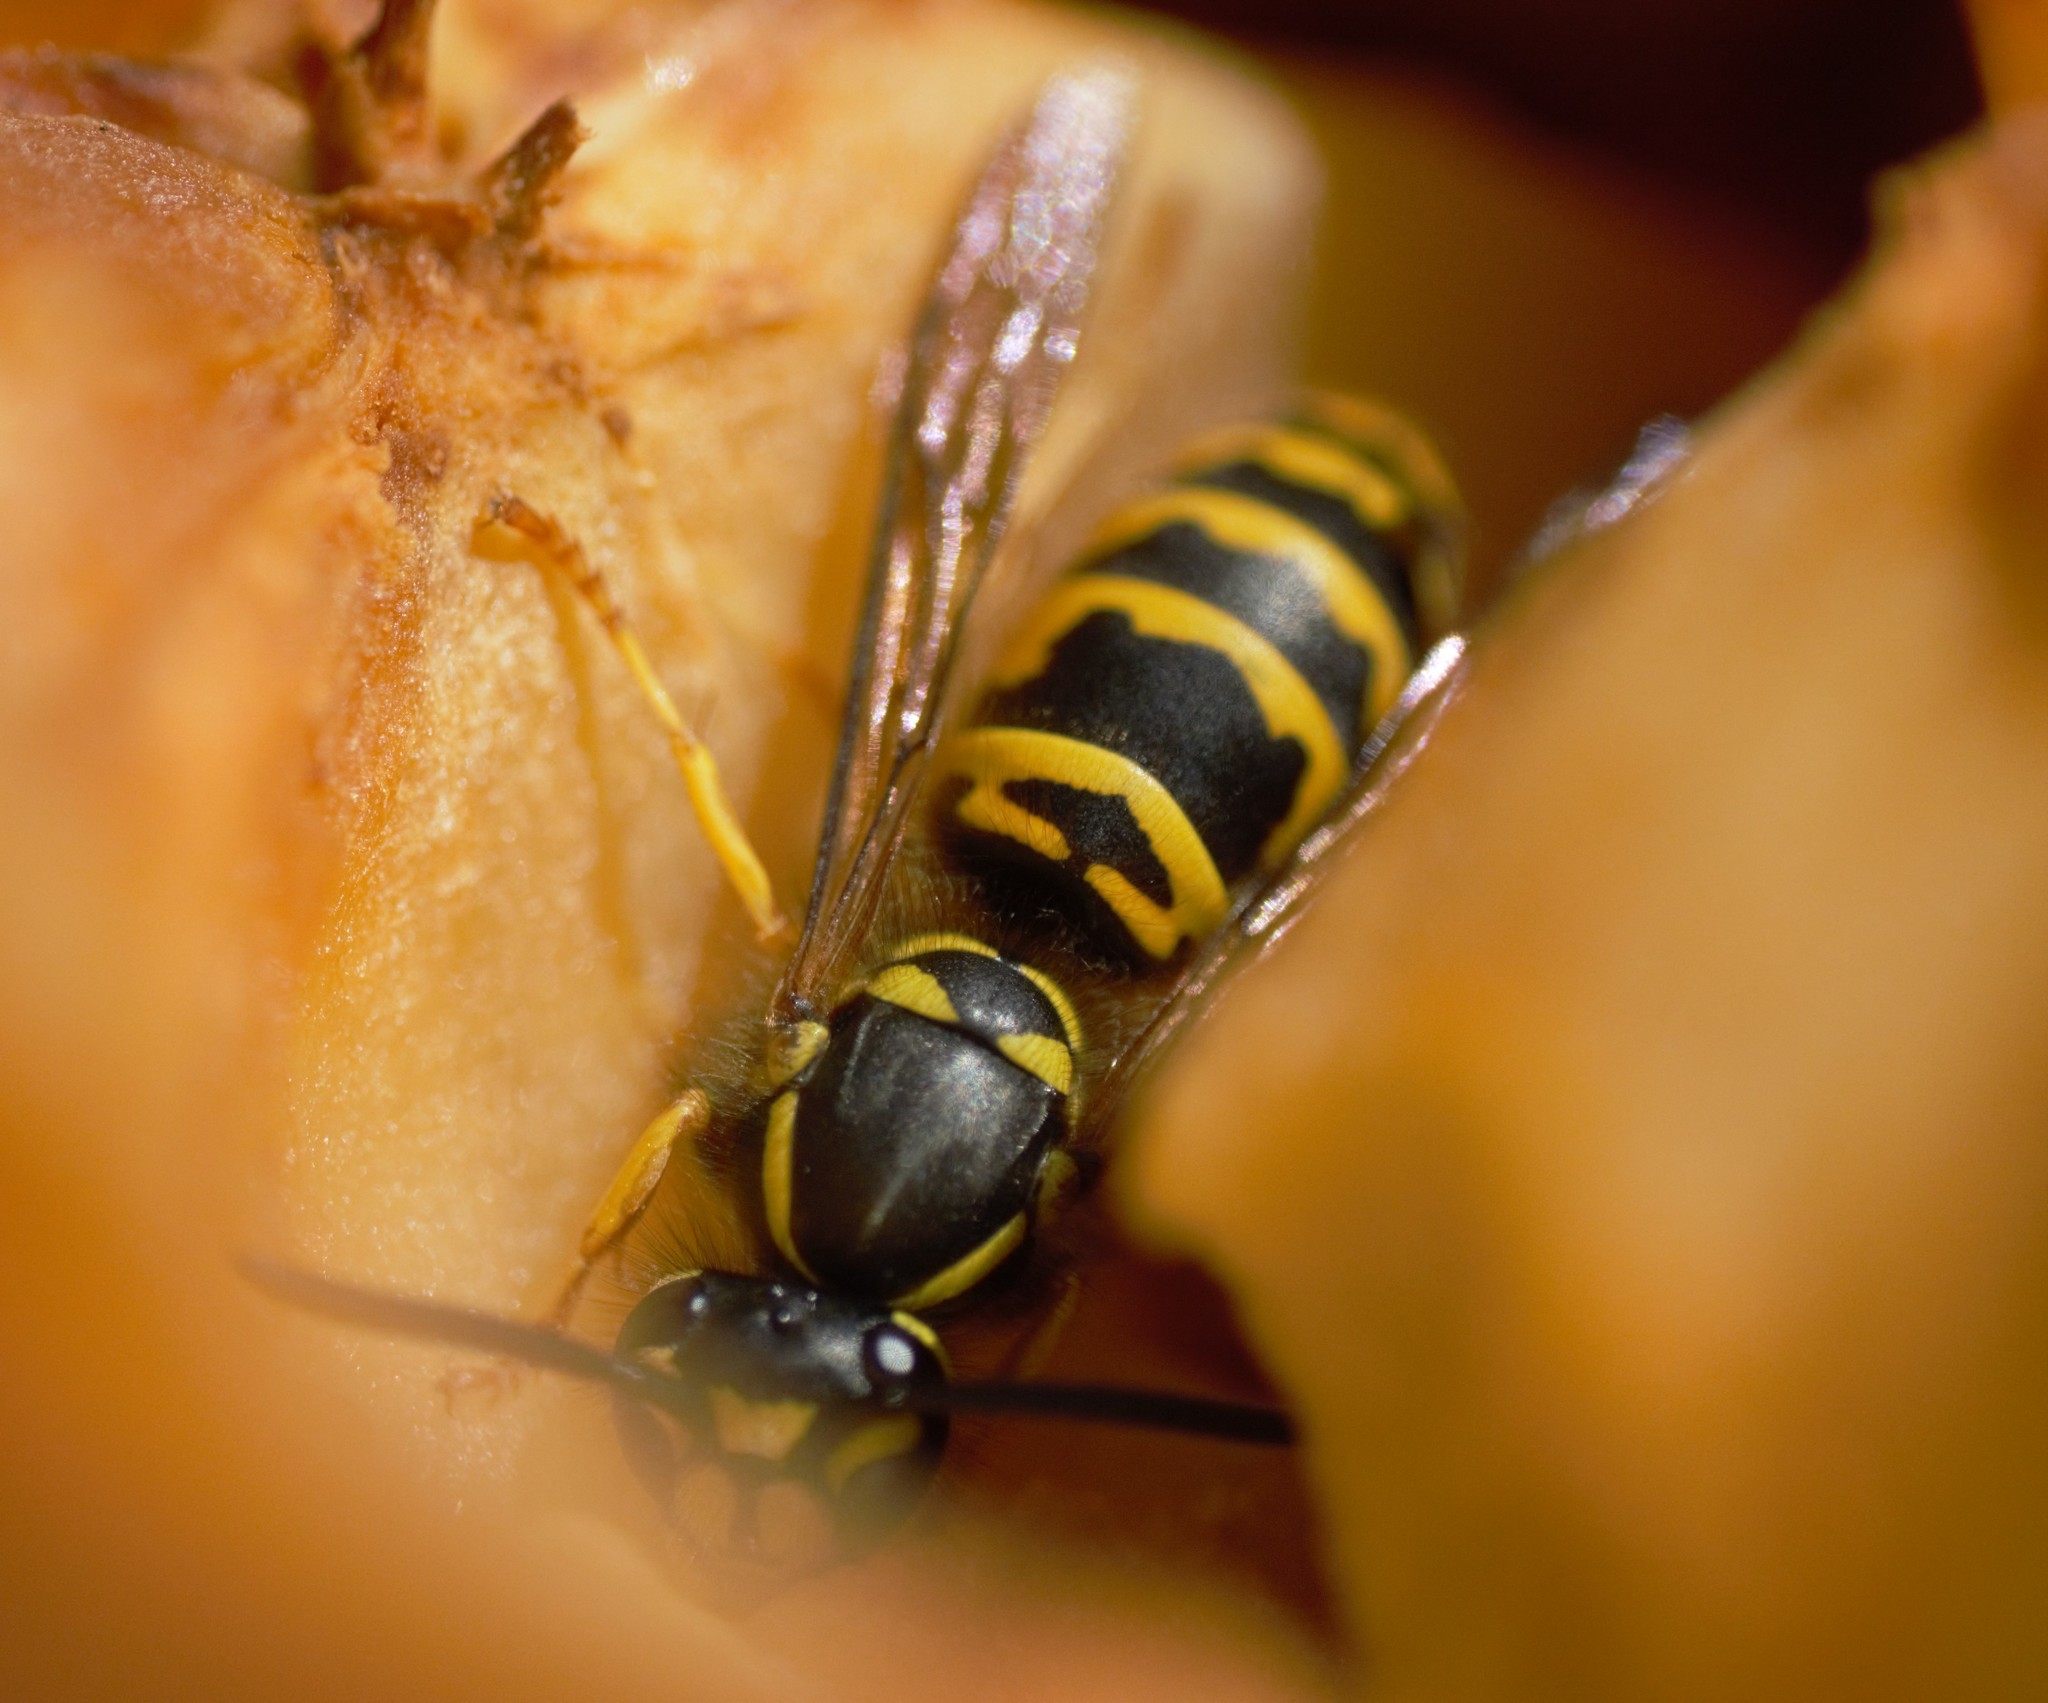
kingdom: Animalia
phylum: Arthropoda
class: Insecta
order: Hymenoptera
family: Vespidae
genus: Vespula
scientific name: Vespula maculifrons
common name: Eastern yellowjacket
